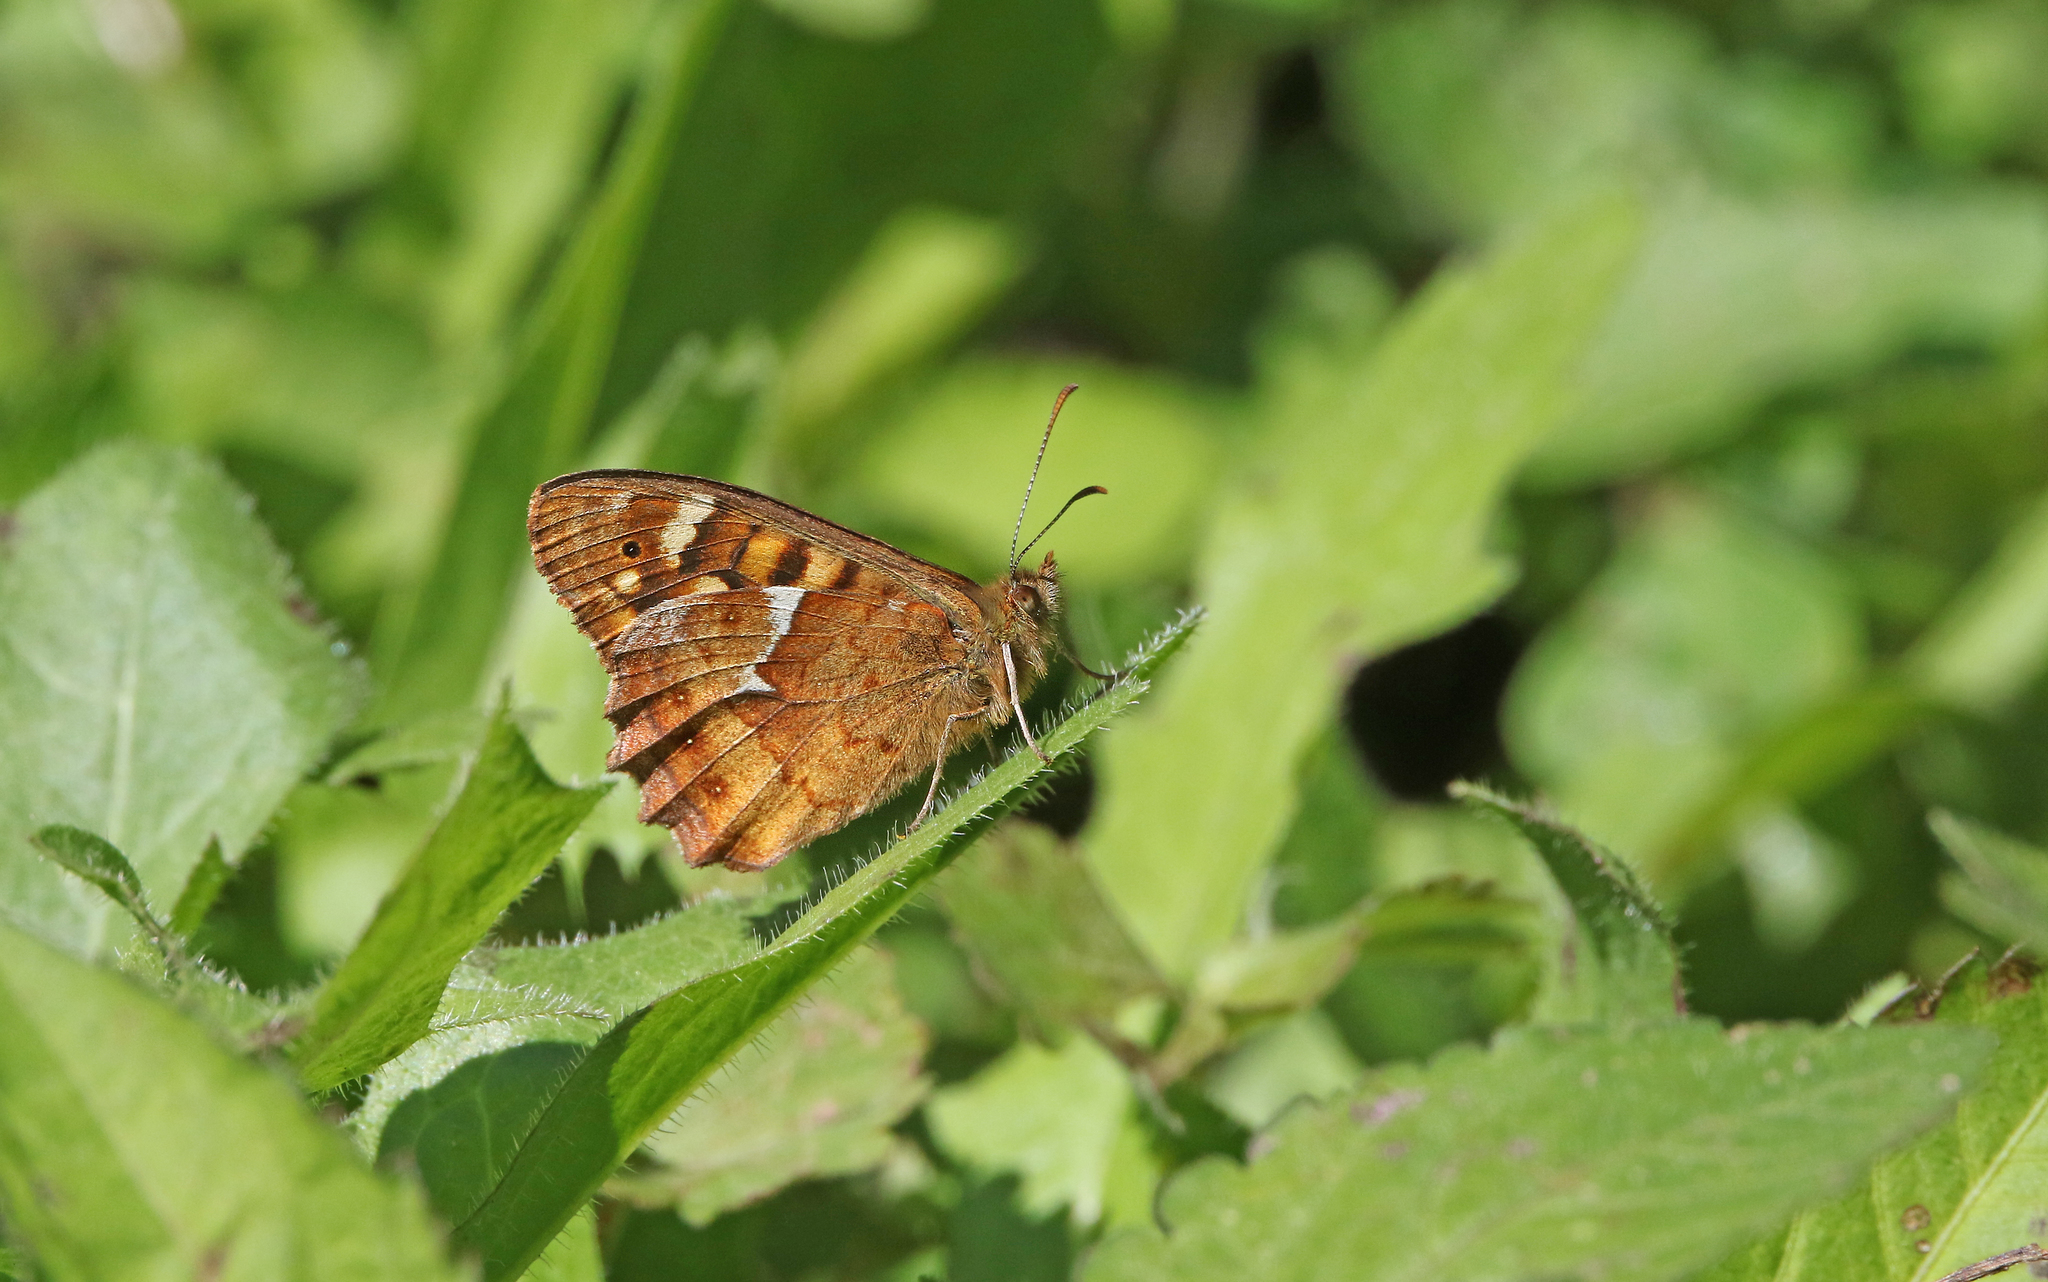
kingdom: Animalia
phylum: Arthropoda
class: Insecta
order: Lepidoptera
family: Nymphalidae
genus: Pararge
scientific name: Pararge aegeria
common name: Speckled wood
